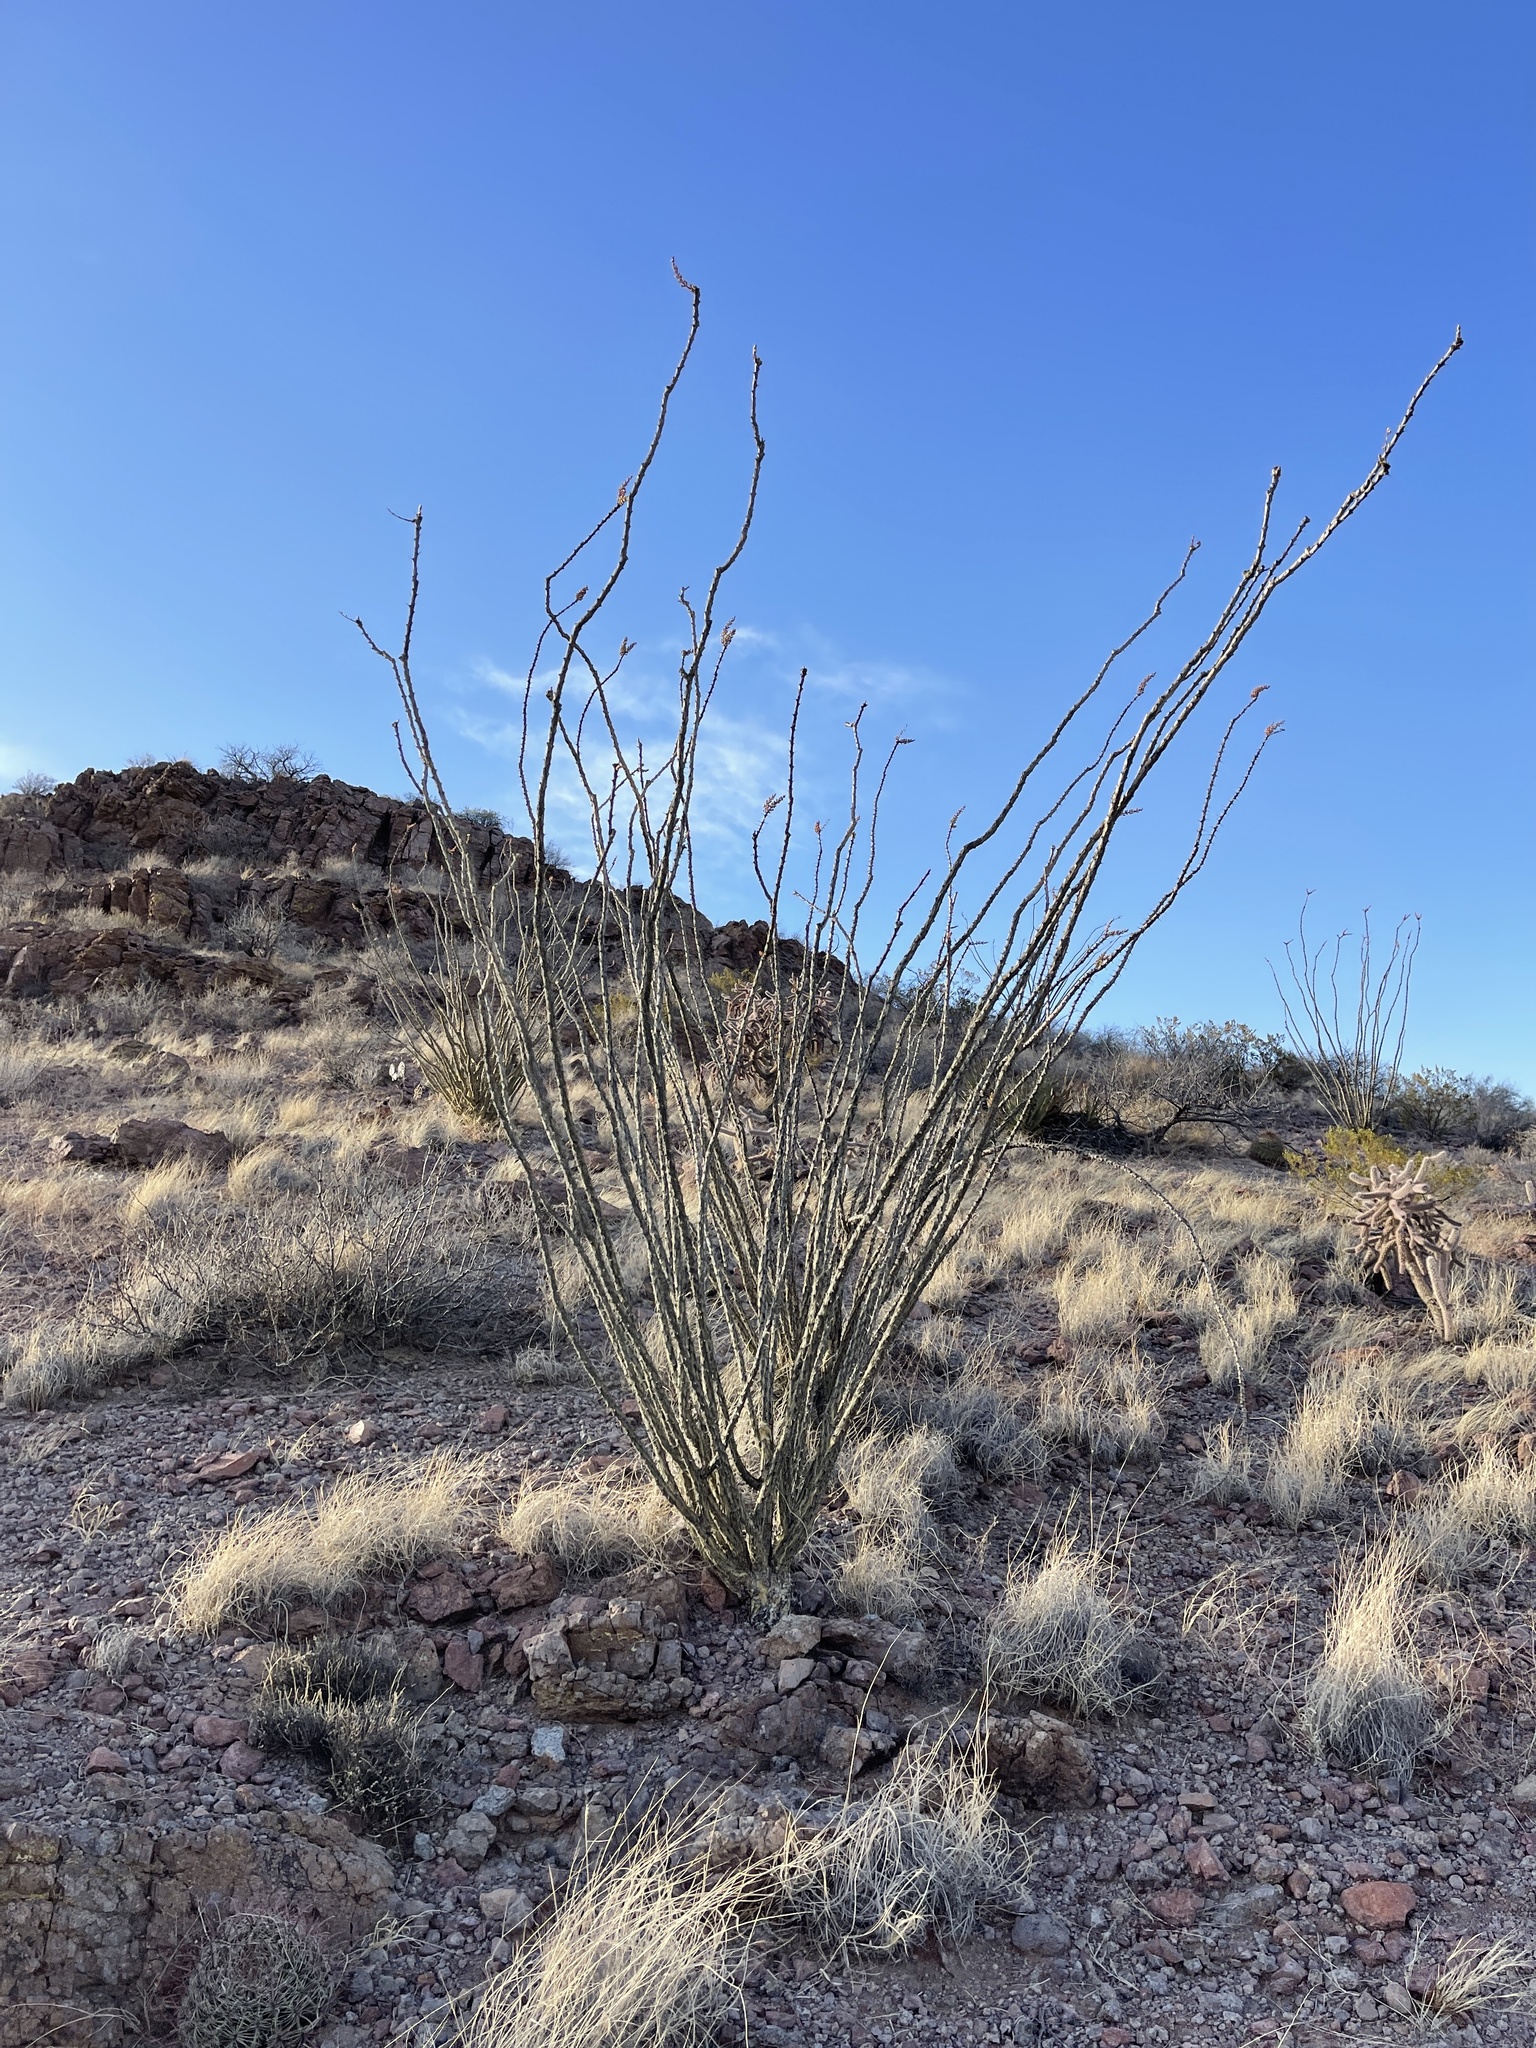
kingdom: Plantae
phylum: Tracheophyta
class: Magnoliopsida
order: Ericales
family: Fouquieriaceae
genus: Fouquieria
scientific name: Fouquieria splendens
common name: Vine-cactus
